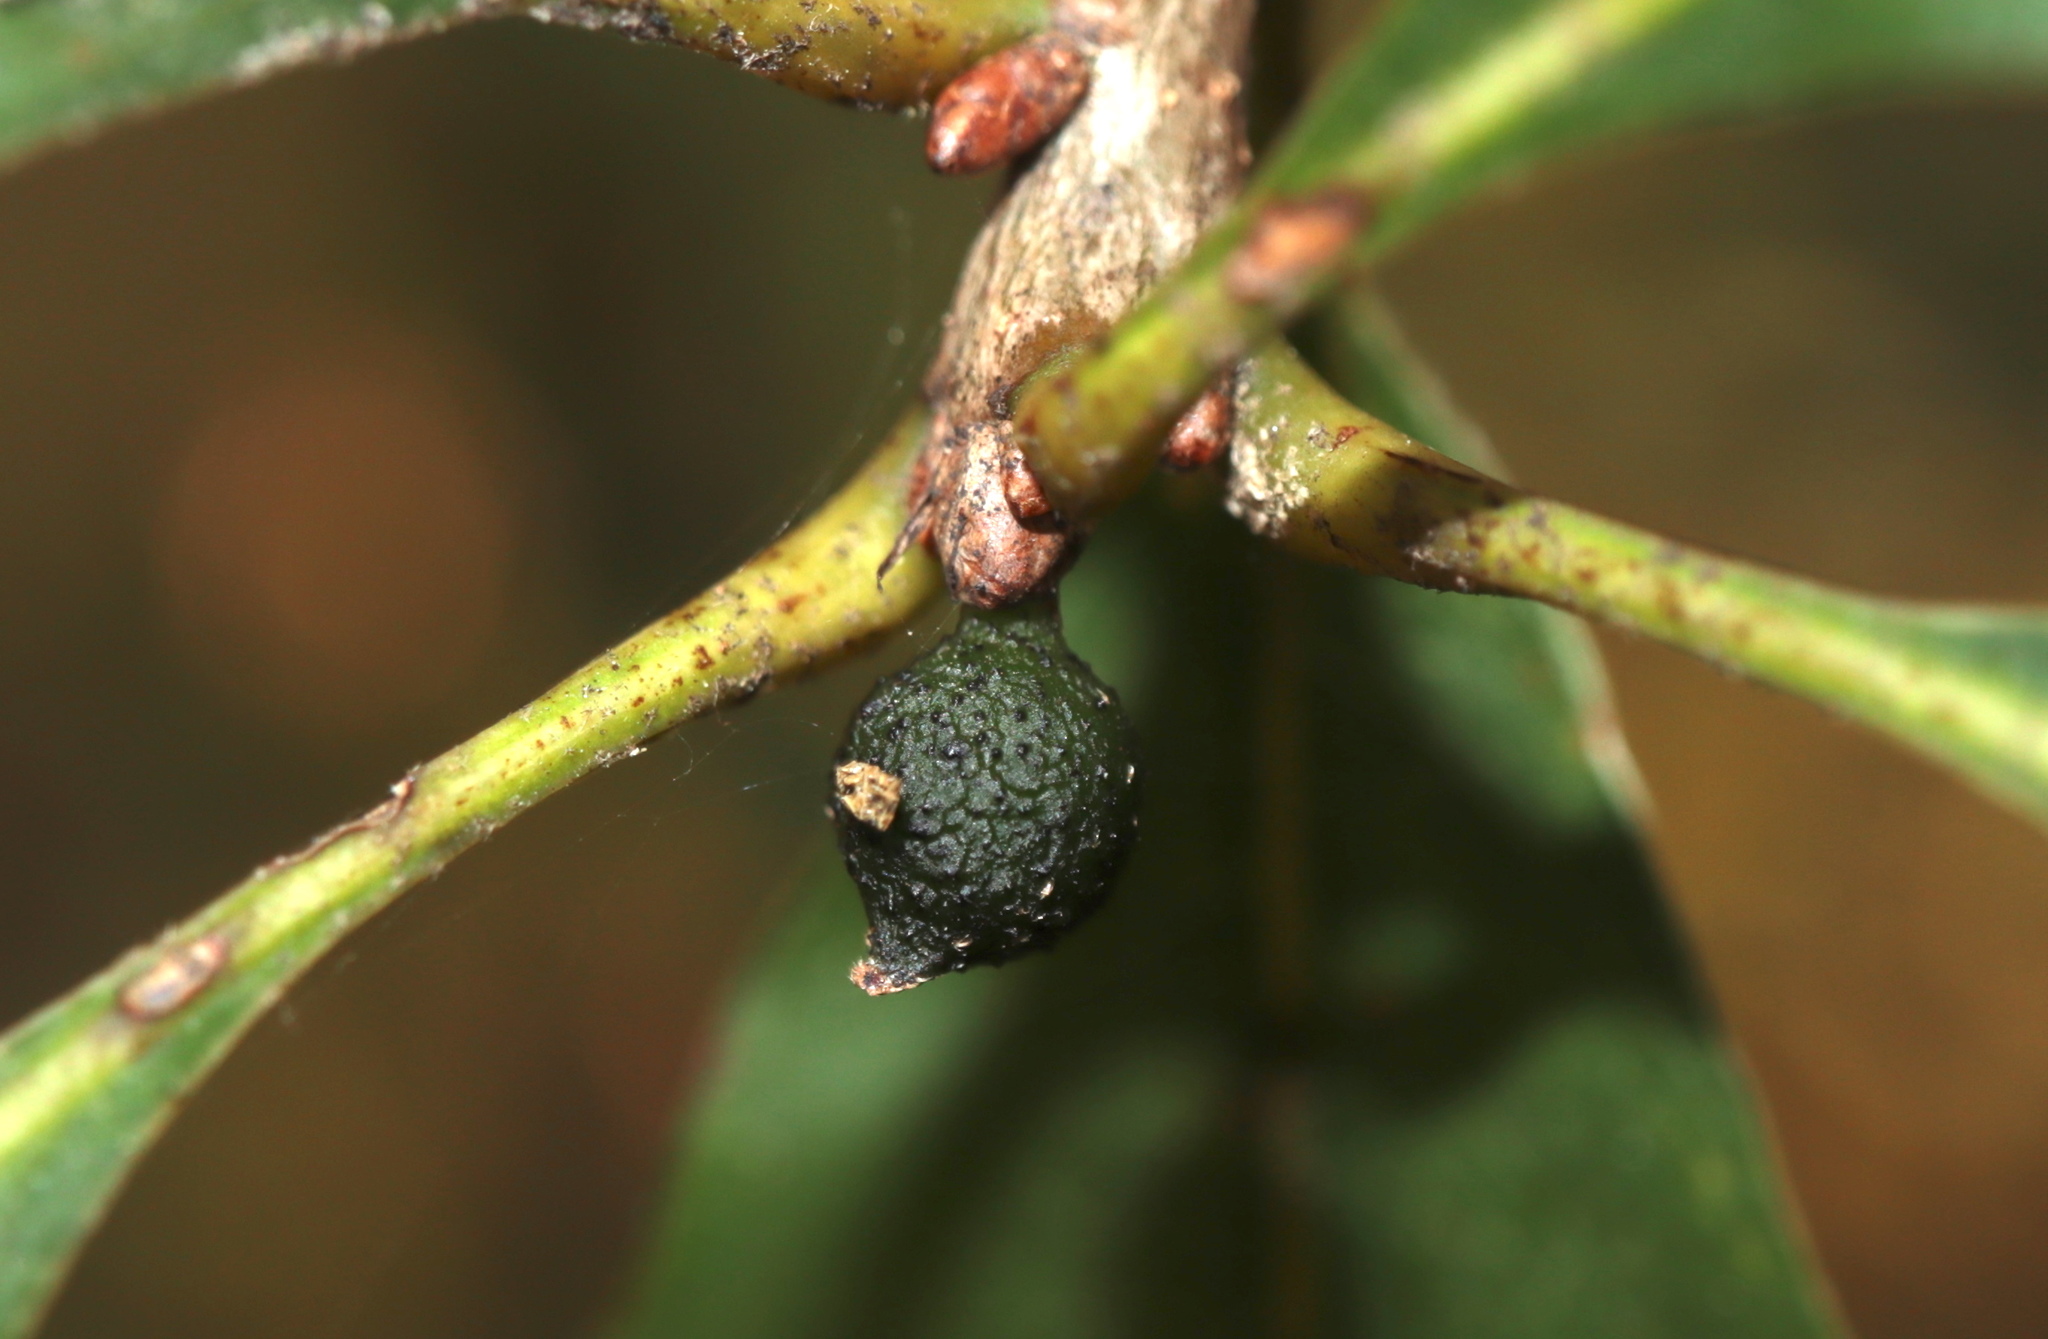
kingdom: Animalia
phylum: Arthropoda
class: Insecta
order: Hymenoptera
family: Cynipidae
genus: Callirhytis
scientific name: Callirhytis
